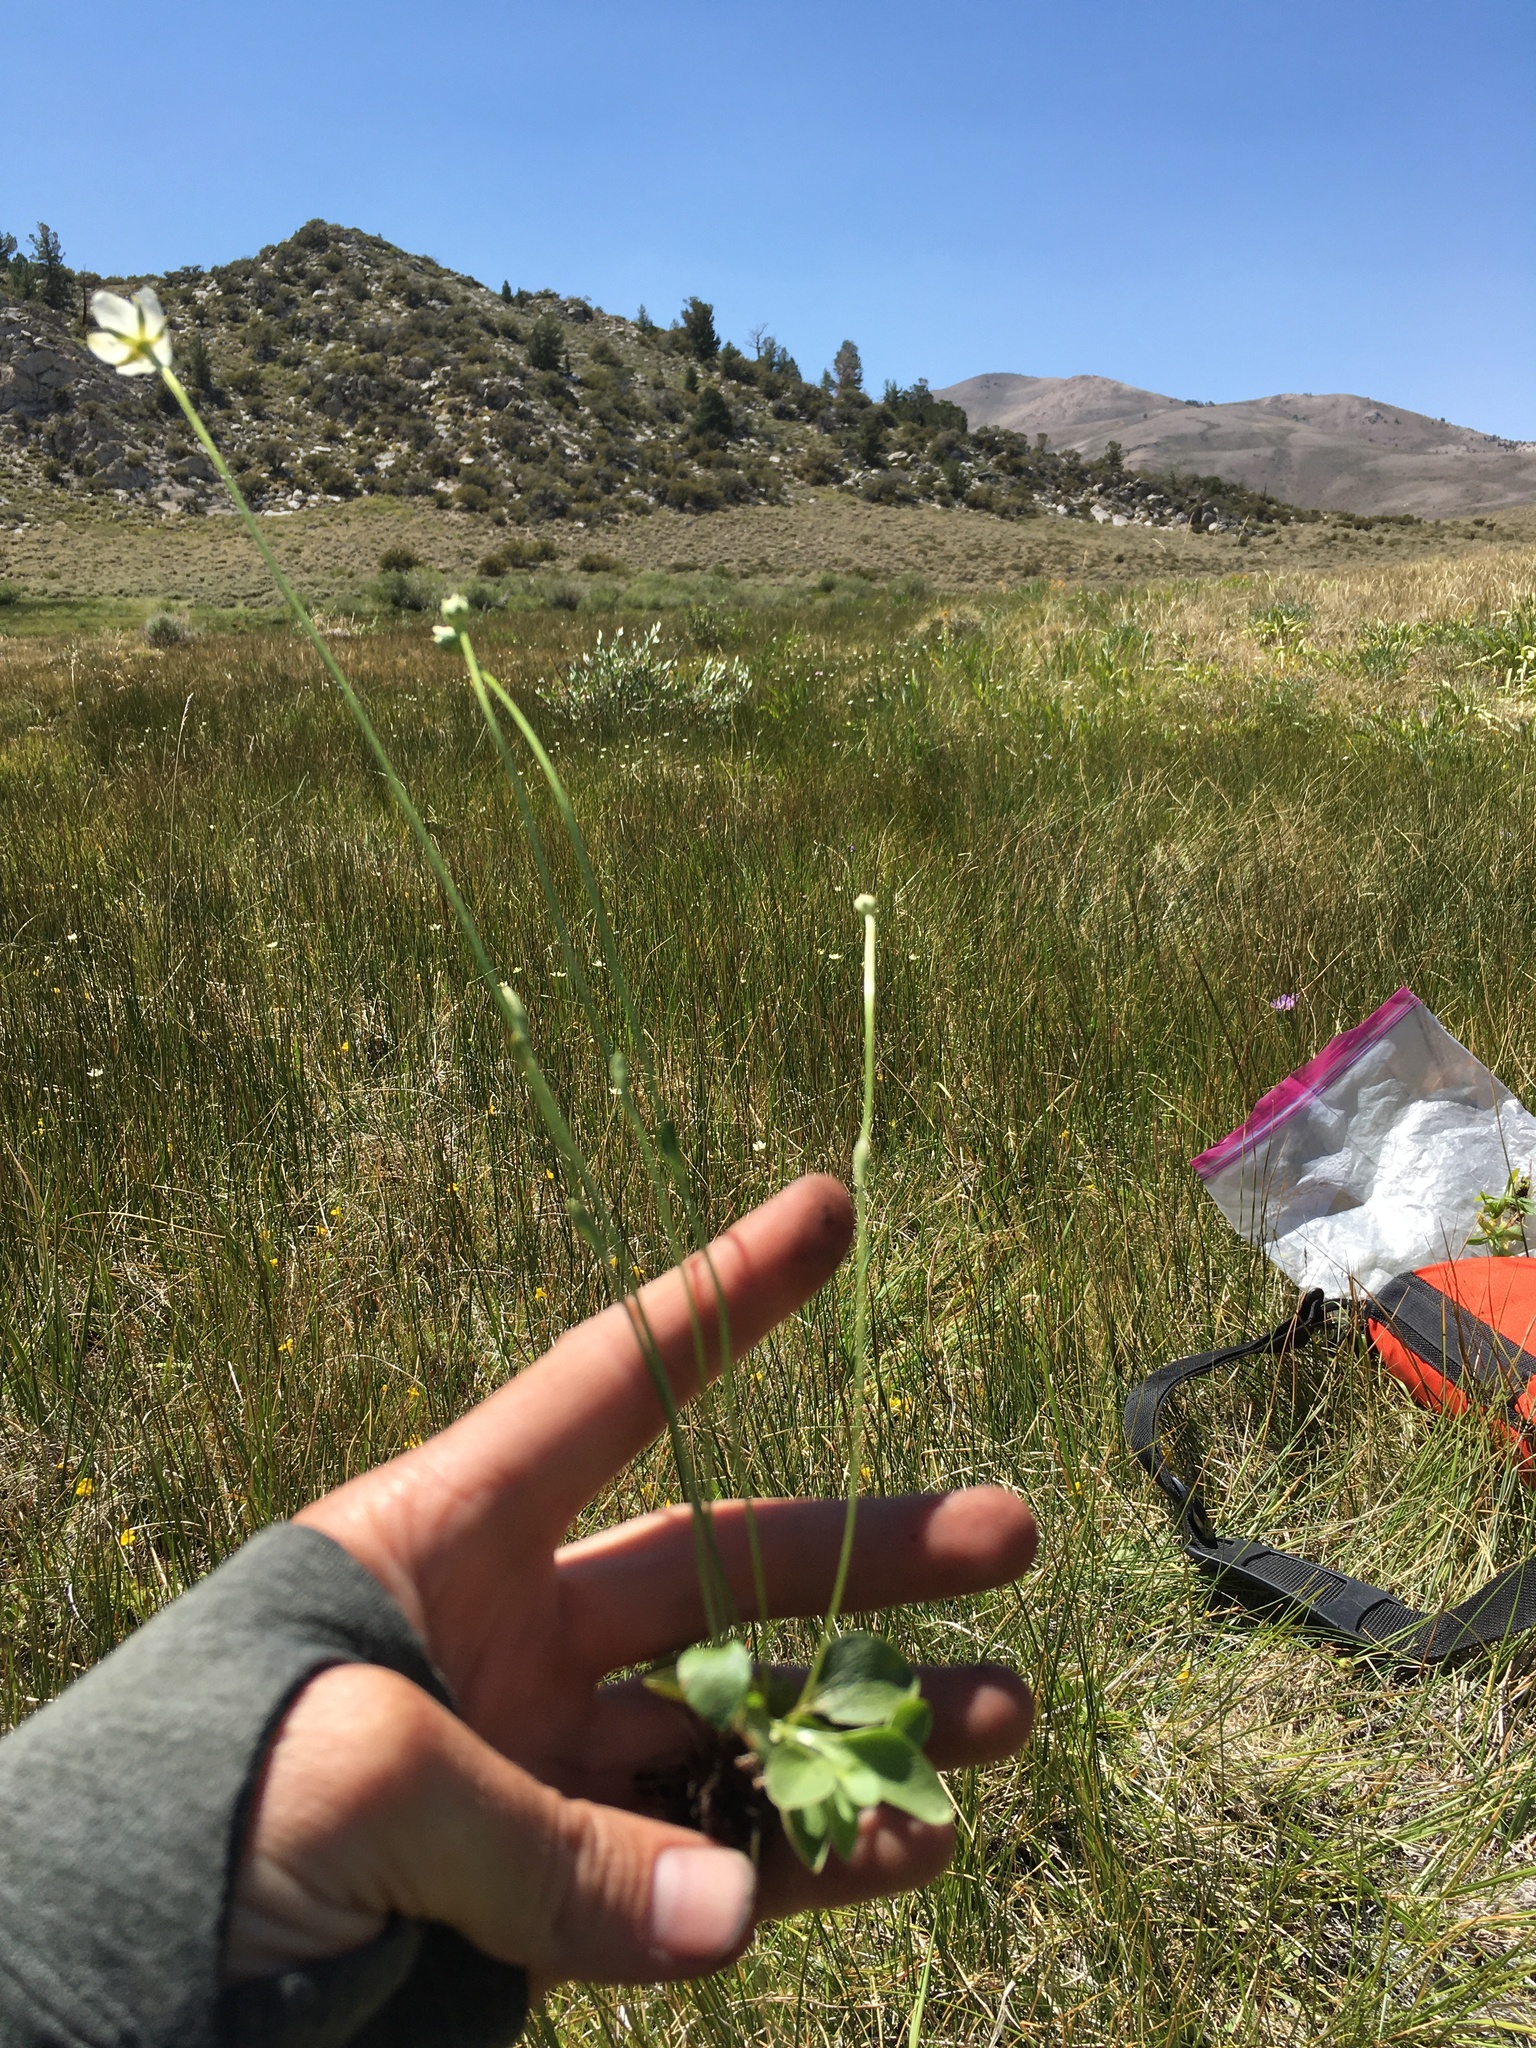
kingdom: Plantae
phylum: Tracheophyta
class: Magnoliopsida
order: Celastrales
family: Parnassiaceae
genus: Parnassia
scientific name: Parnassia palustris
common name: Grass-of-parnassus
